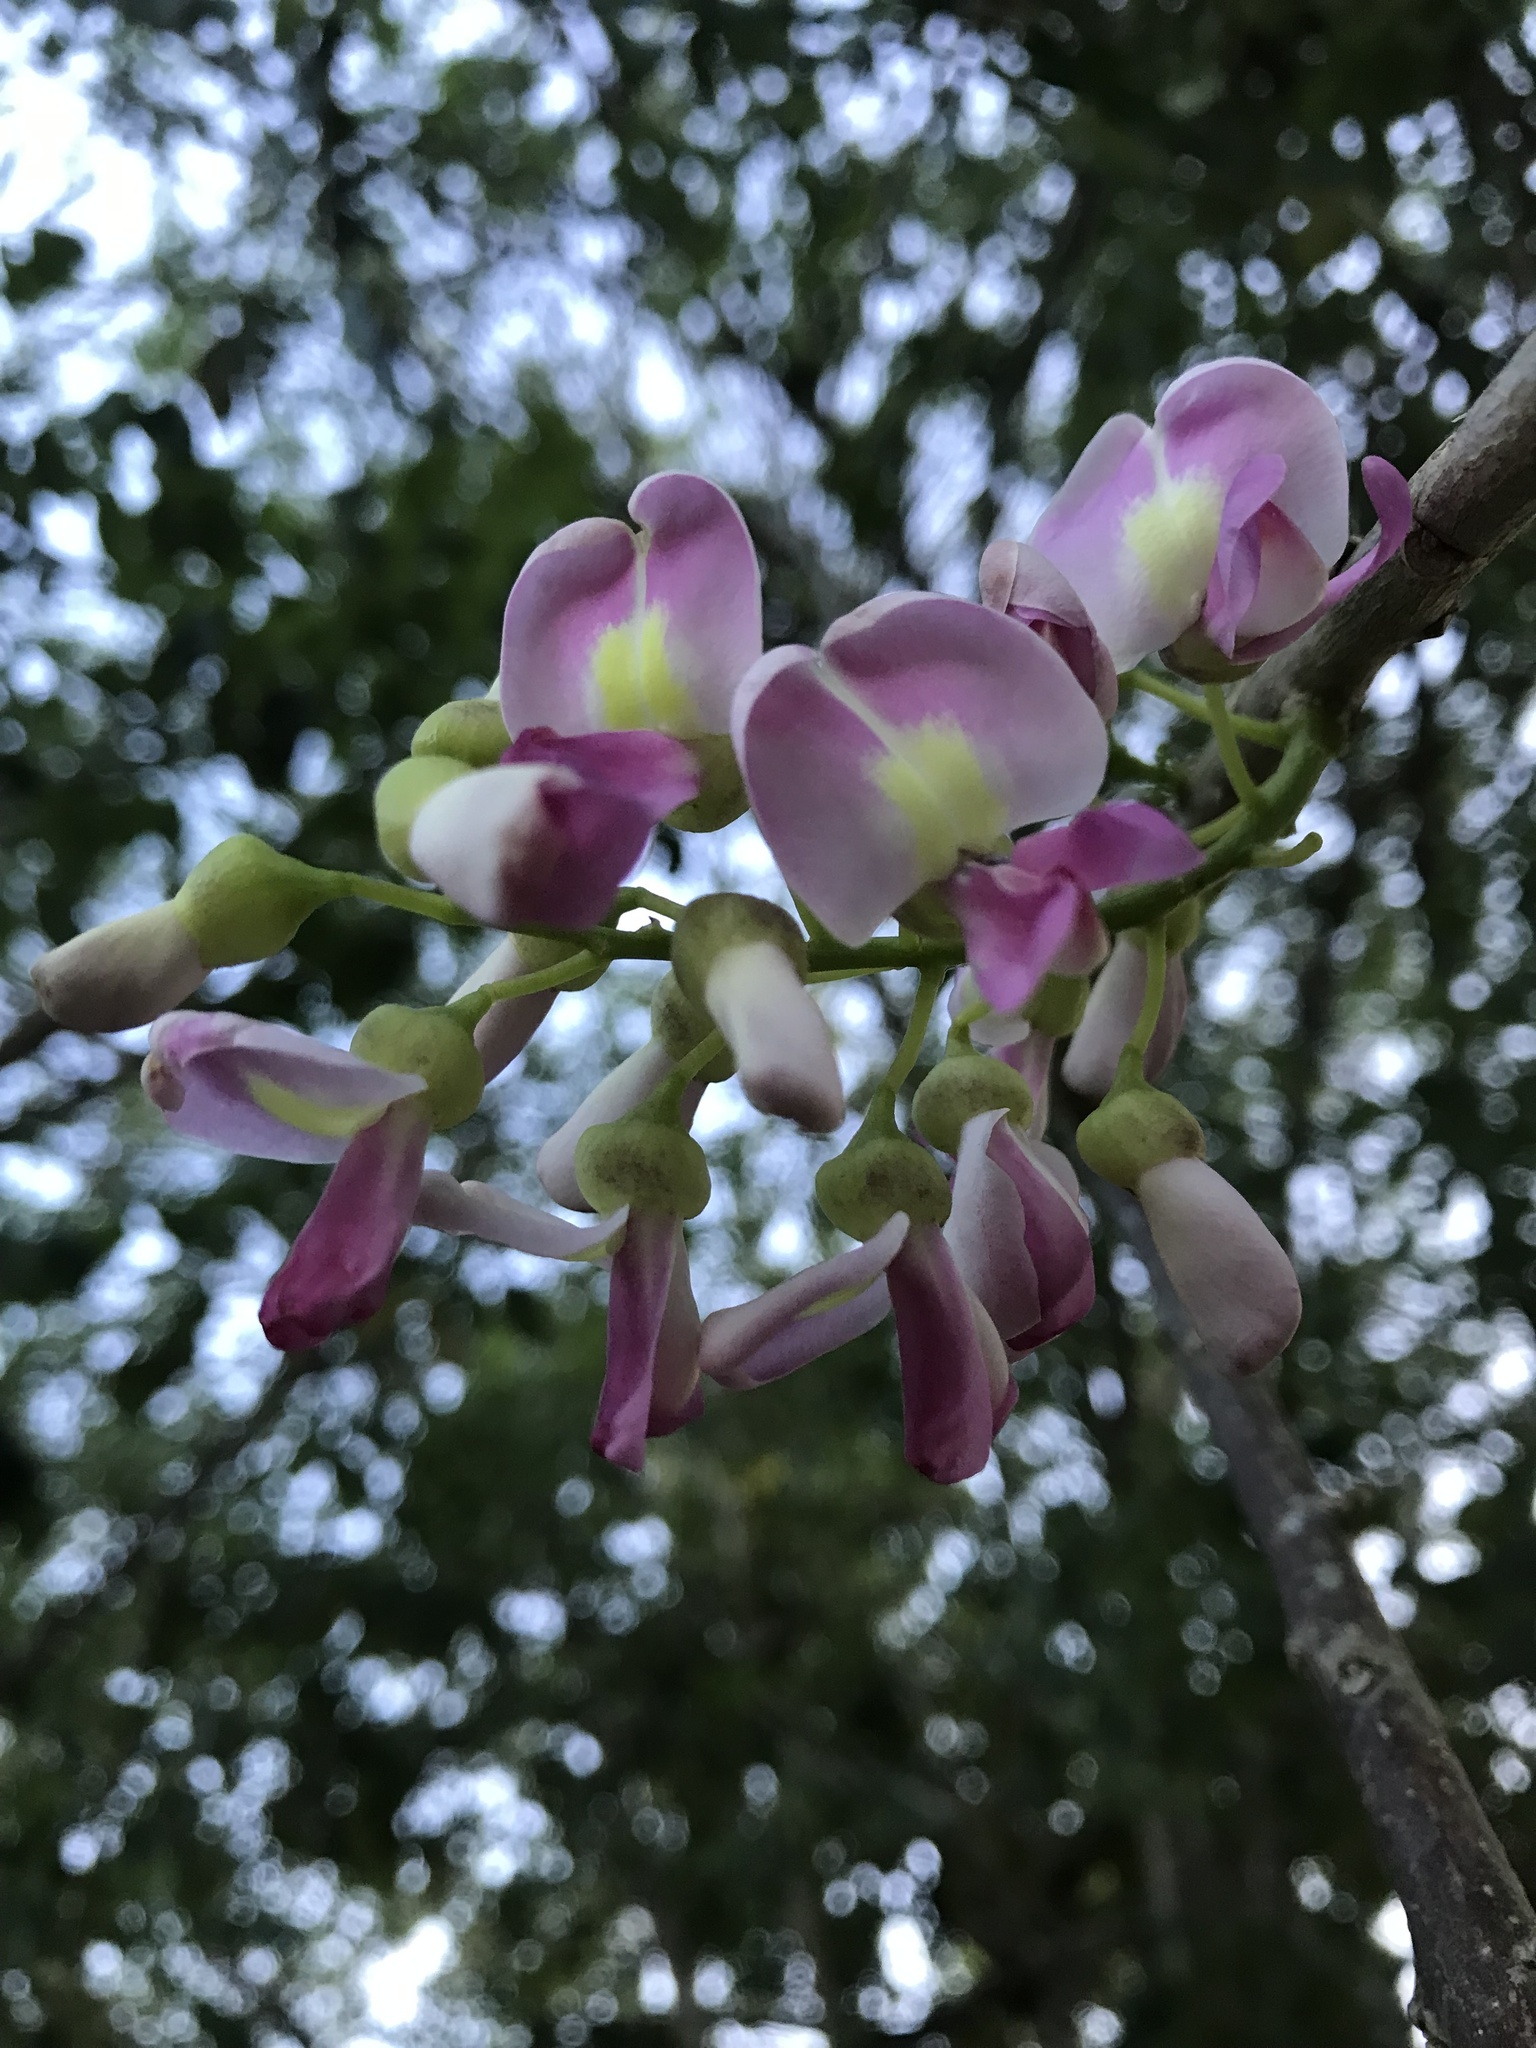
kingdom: Plantae
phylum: Tracheophyta
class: Magnoliopsida
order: Fabales
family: Fabaceae
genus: Gliricidia
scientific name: Gliricidia sepium
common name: Quickstick
